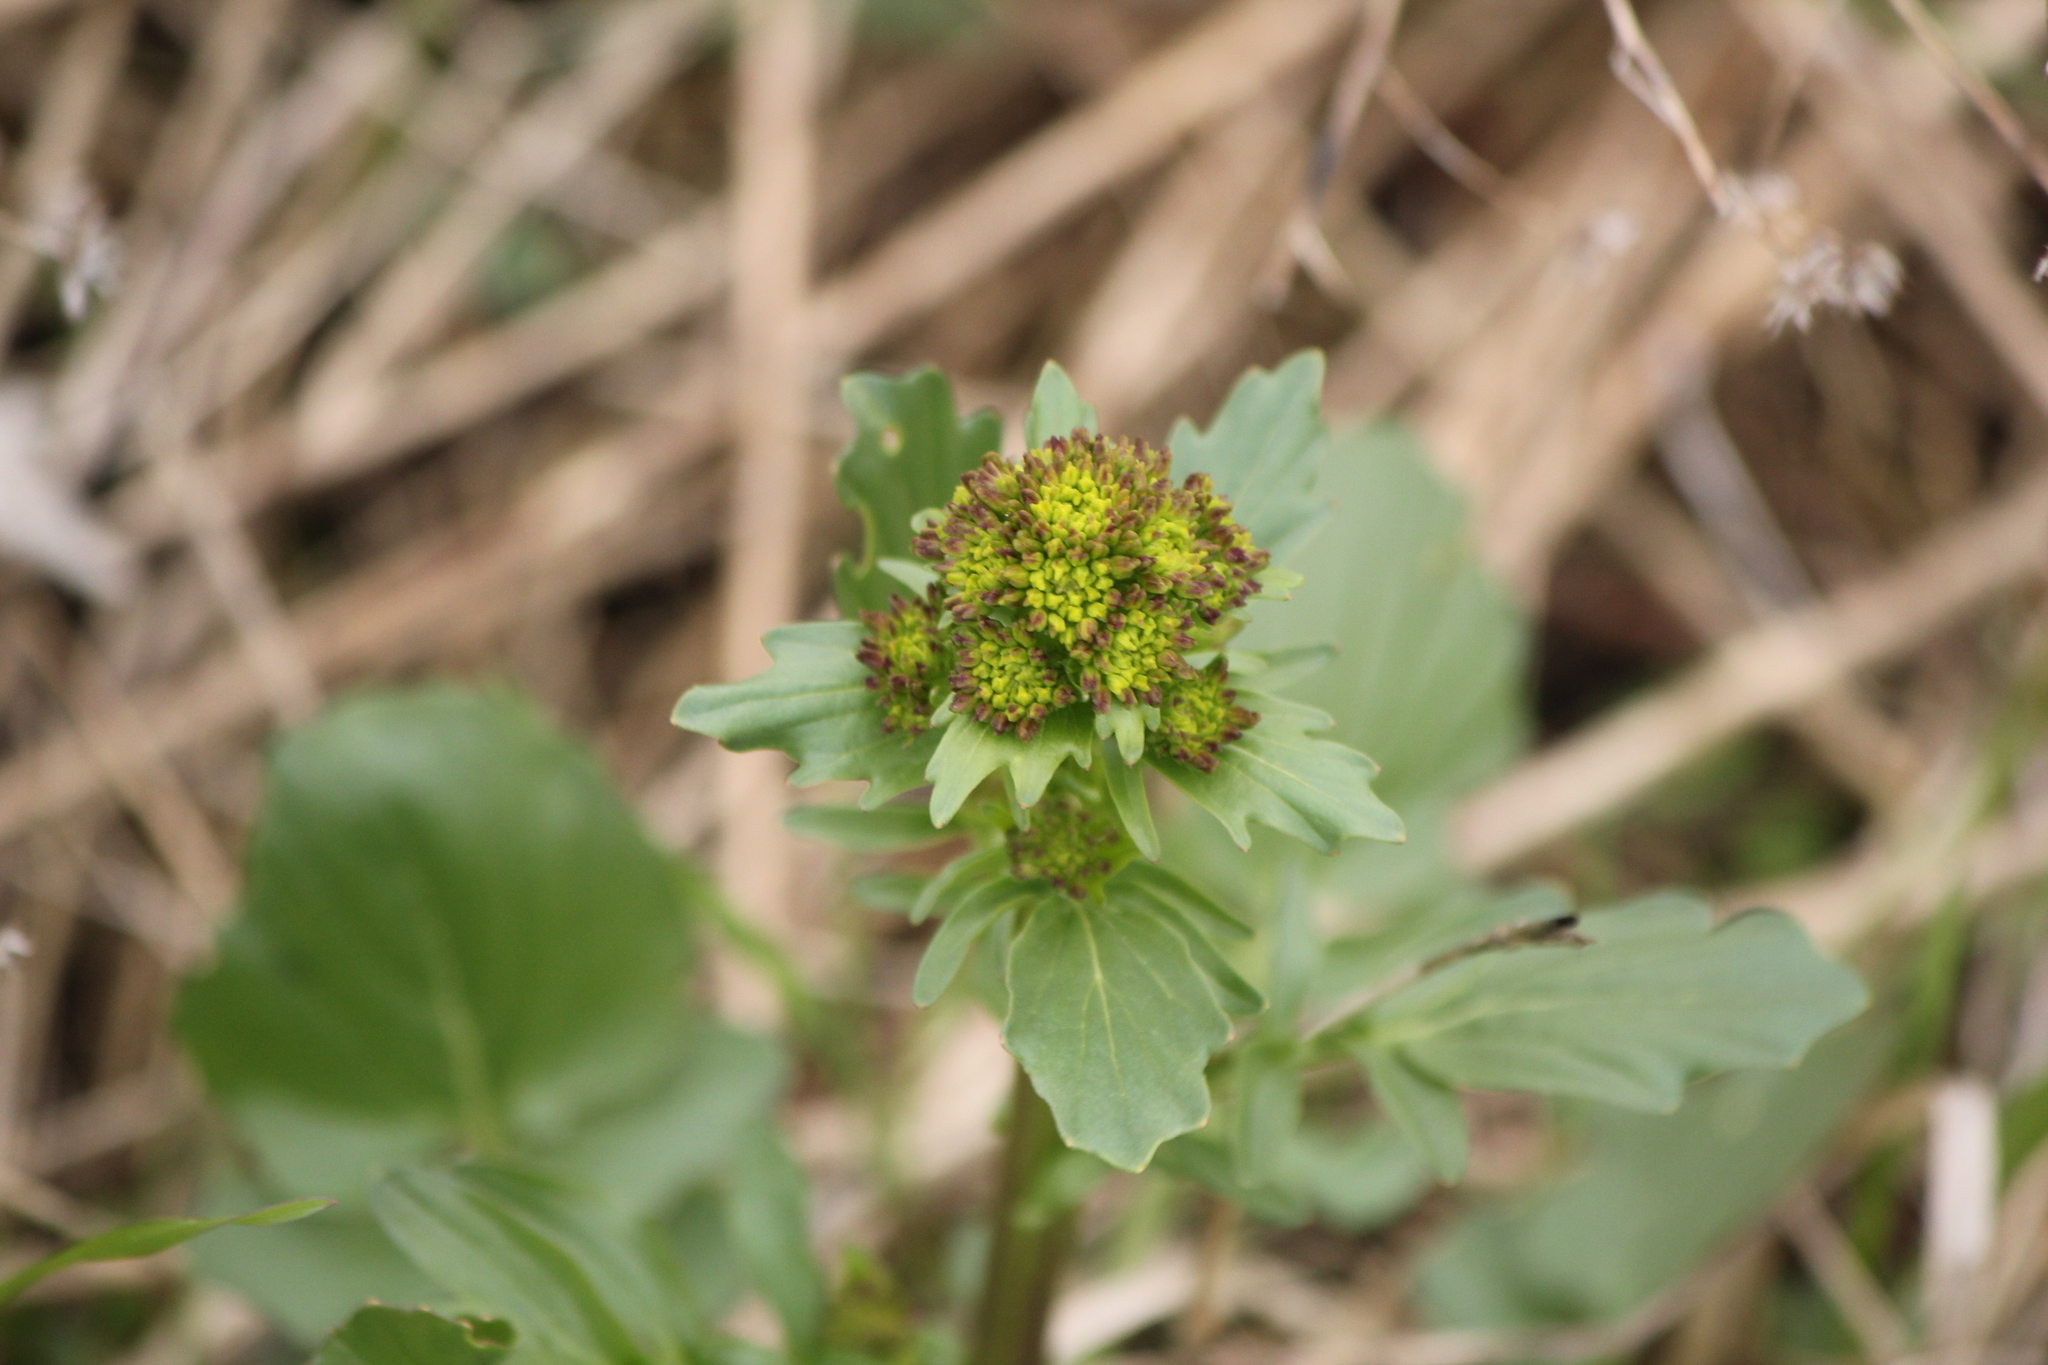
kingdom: Plantae
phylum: Tracheophyta
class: Magnoliopsida
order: Brassicales
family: Brassicaceae
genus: Barbarea
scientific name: Barbarea vulgaris
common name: Cressy-greens
